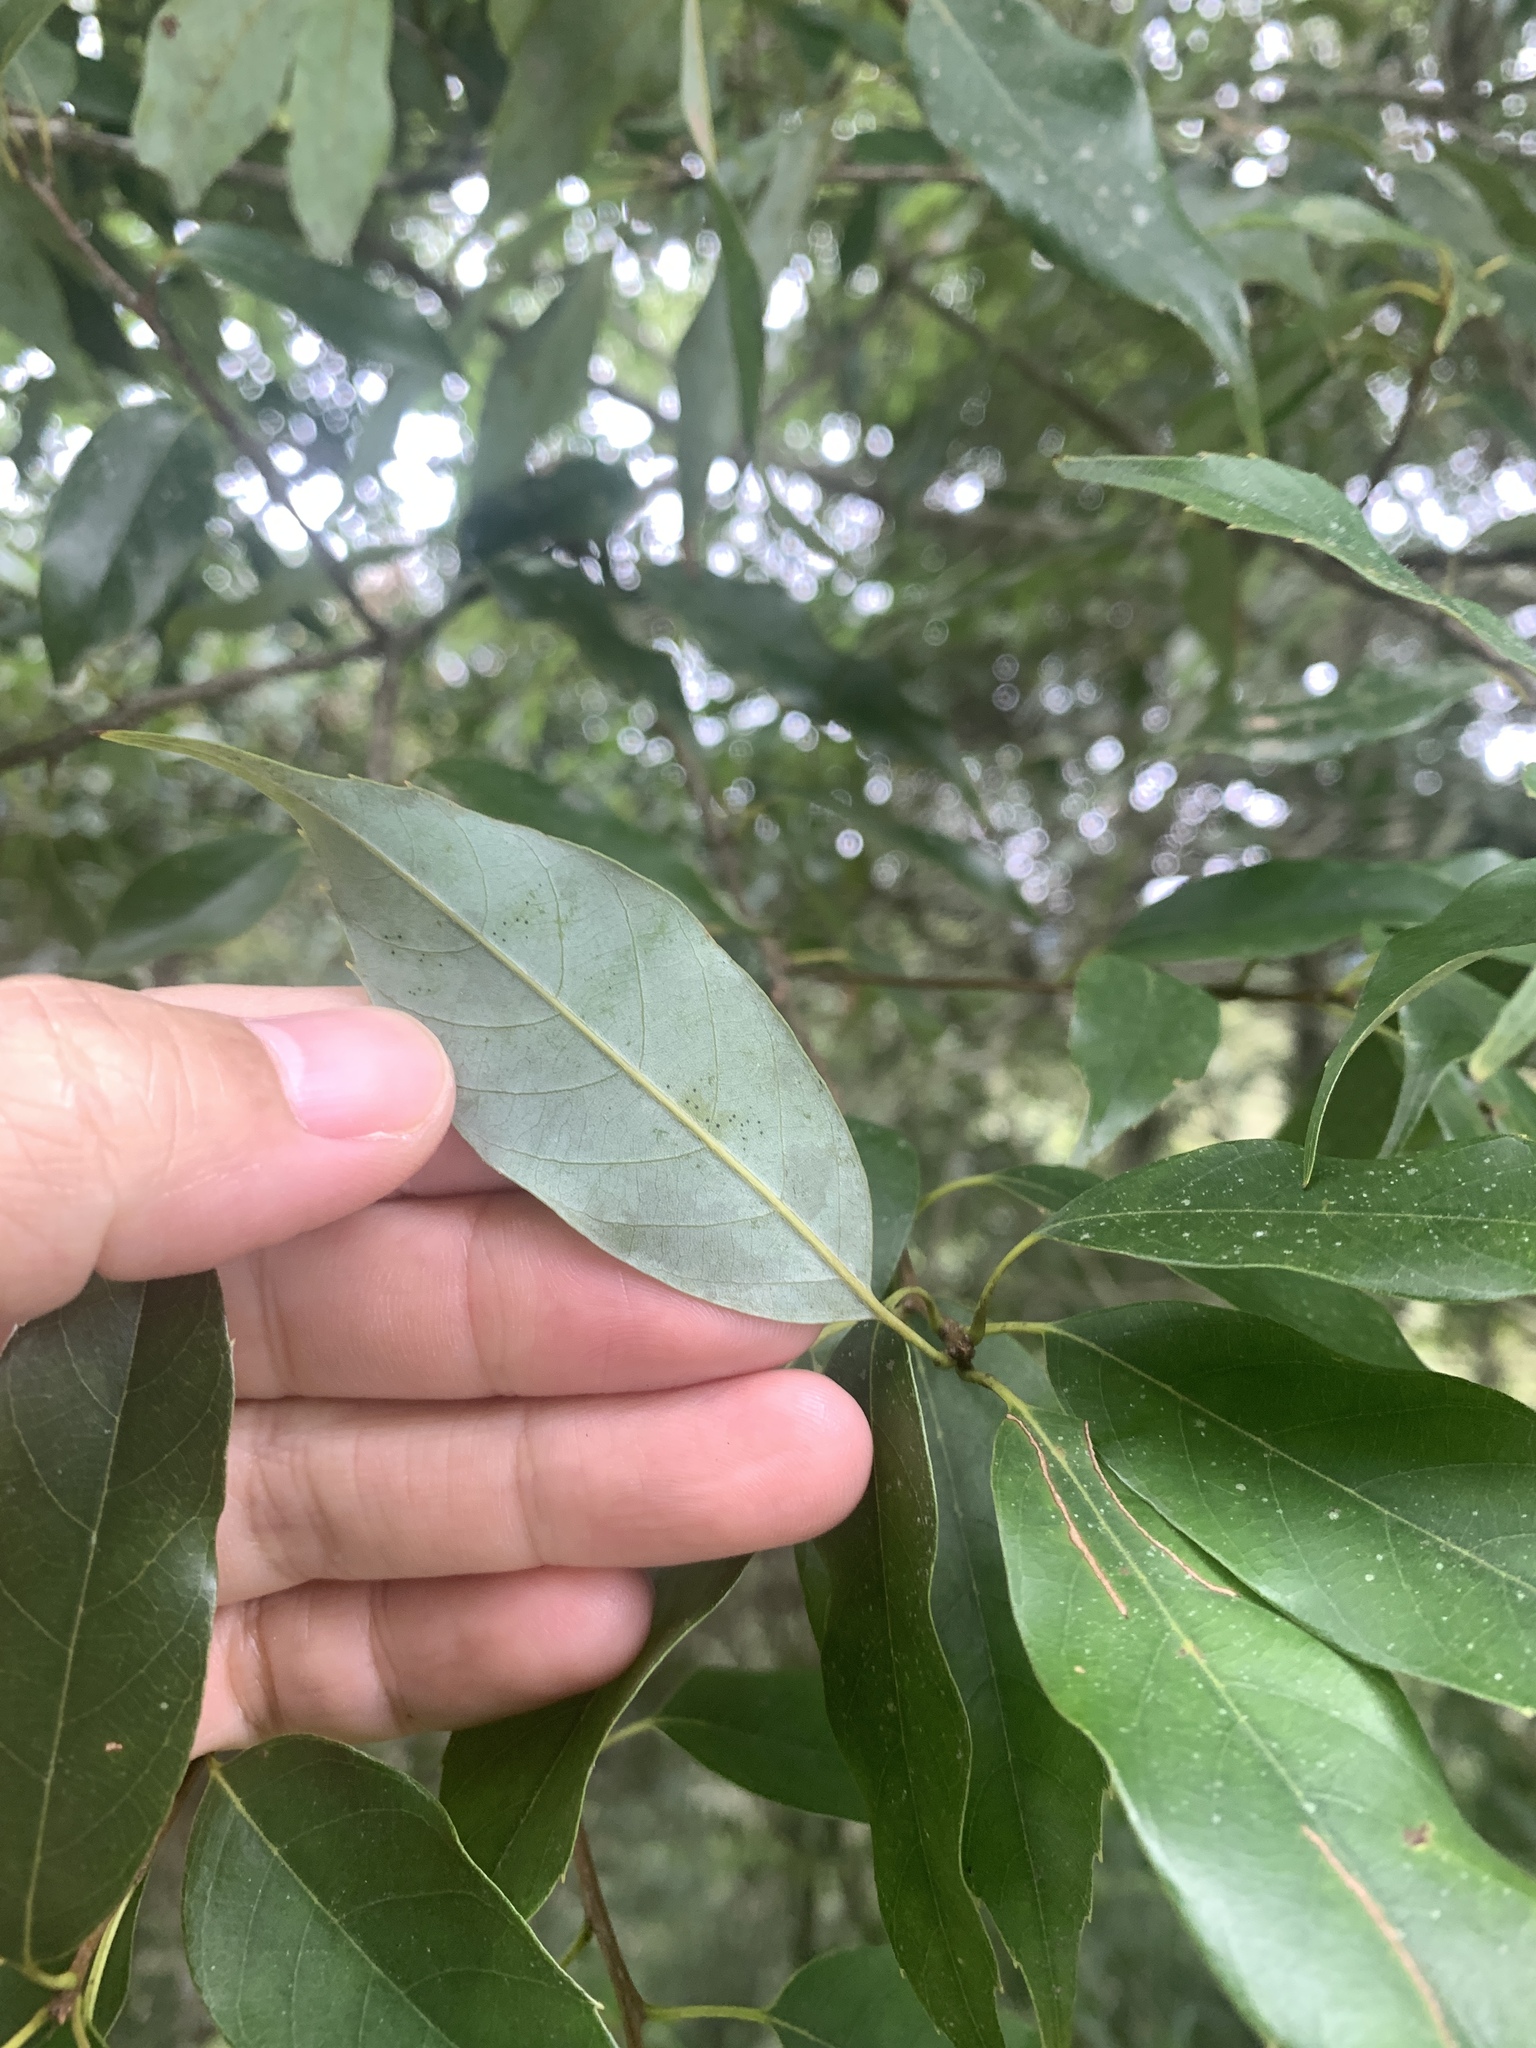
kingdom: Plantae
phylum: Tracheophyta
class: Magnoliopsida
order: Fagales
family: Fagaceae
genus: Quercus
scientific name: Quercus longinux
